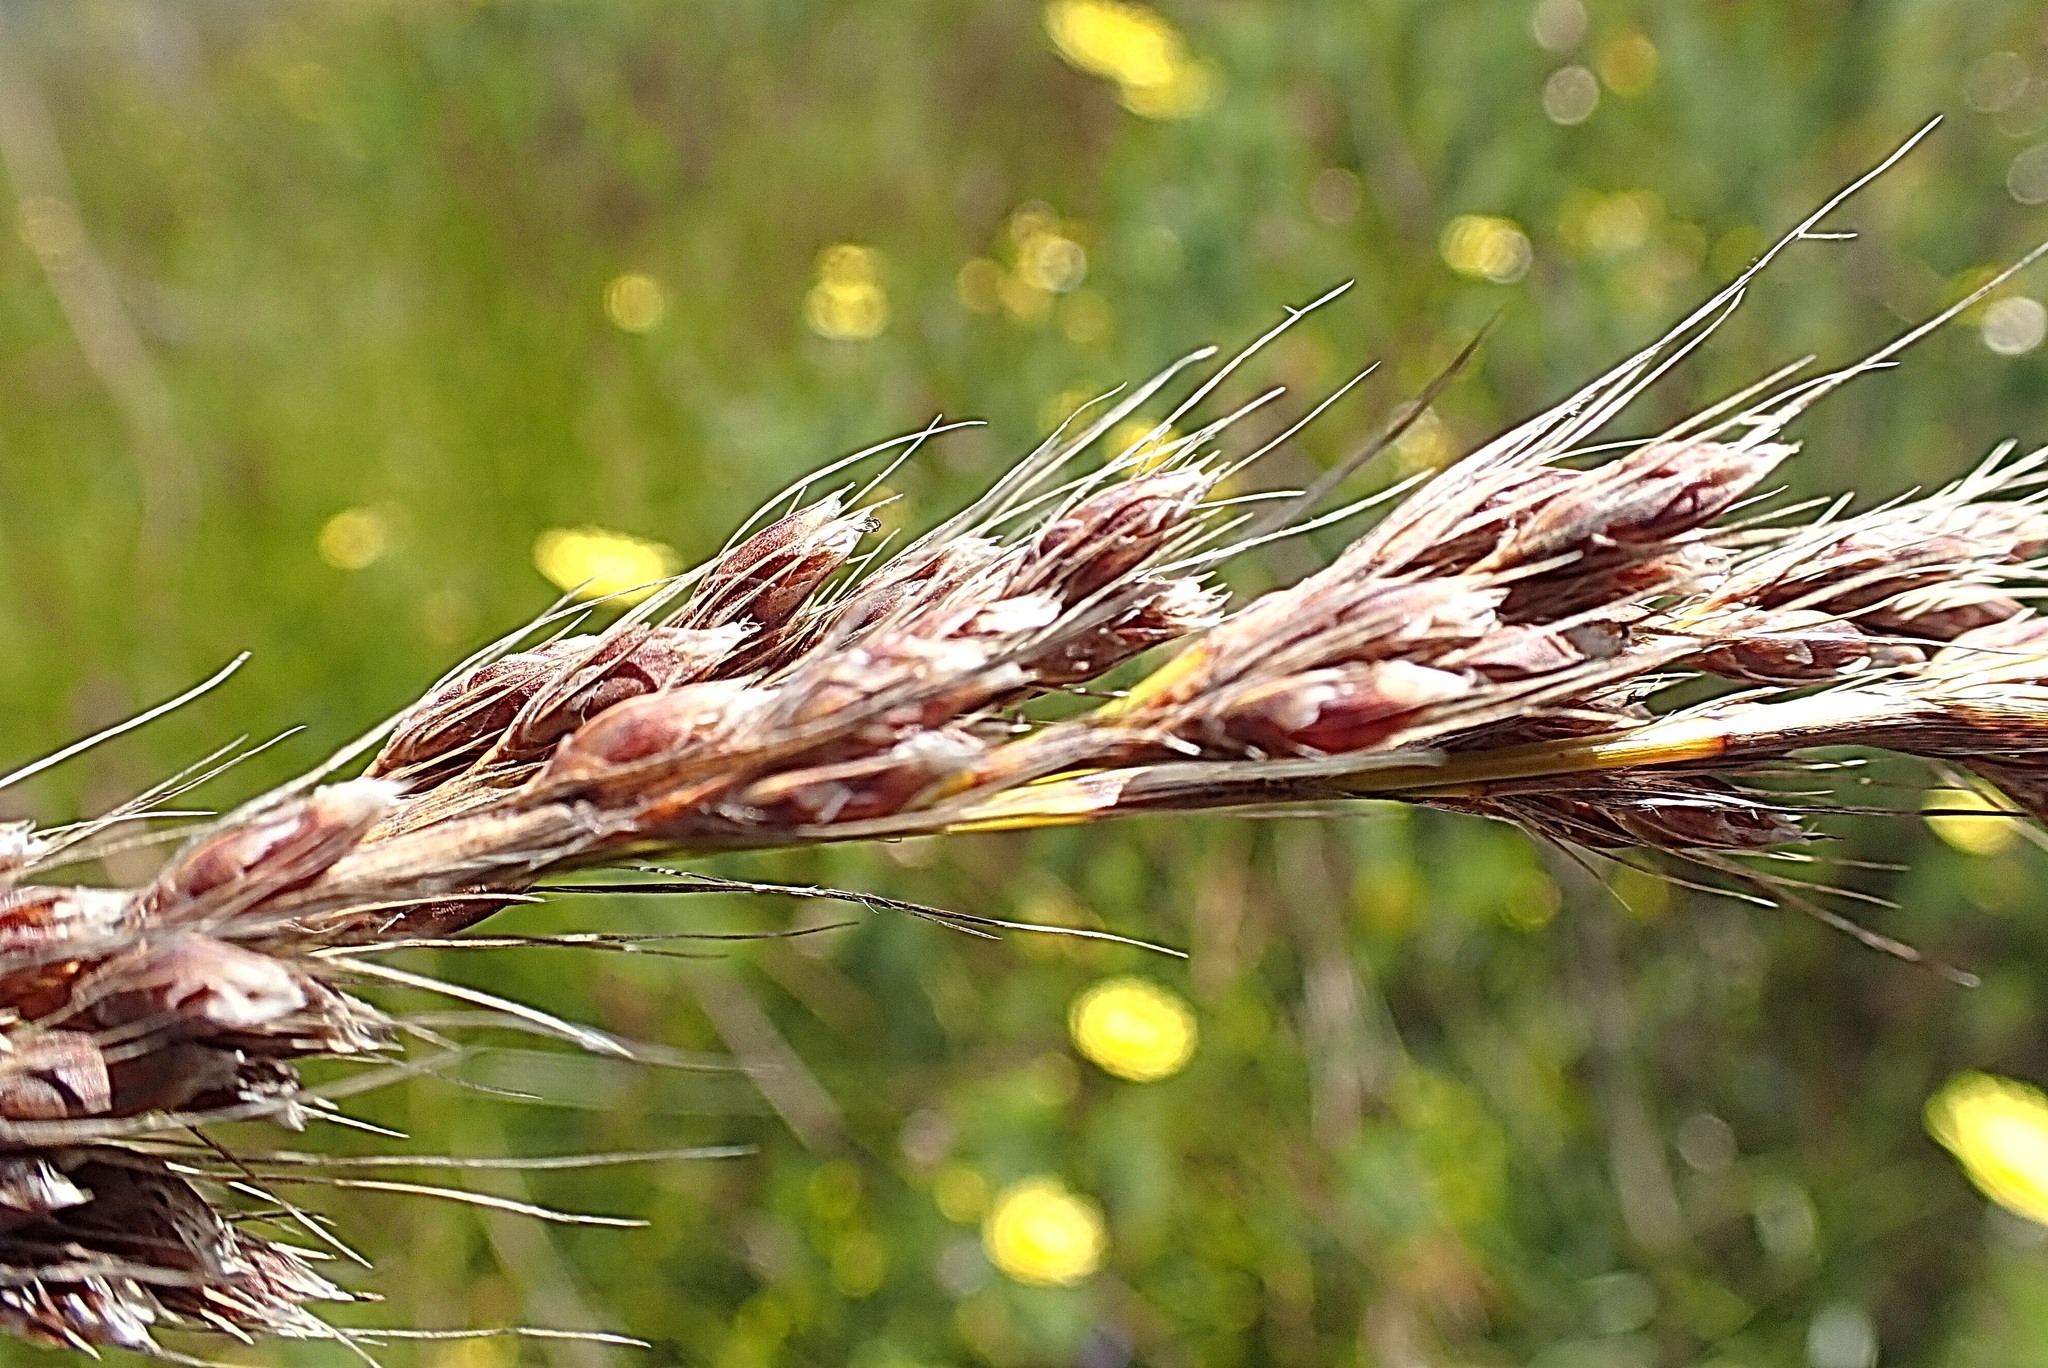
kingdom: Plantae
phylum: Tracheophyta
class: Liliopsida
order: Poales
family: Cyperaceae
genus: Tetraria
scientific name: Tetraria involucrata
